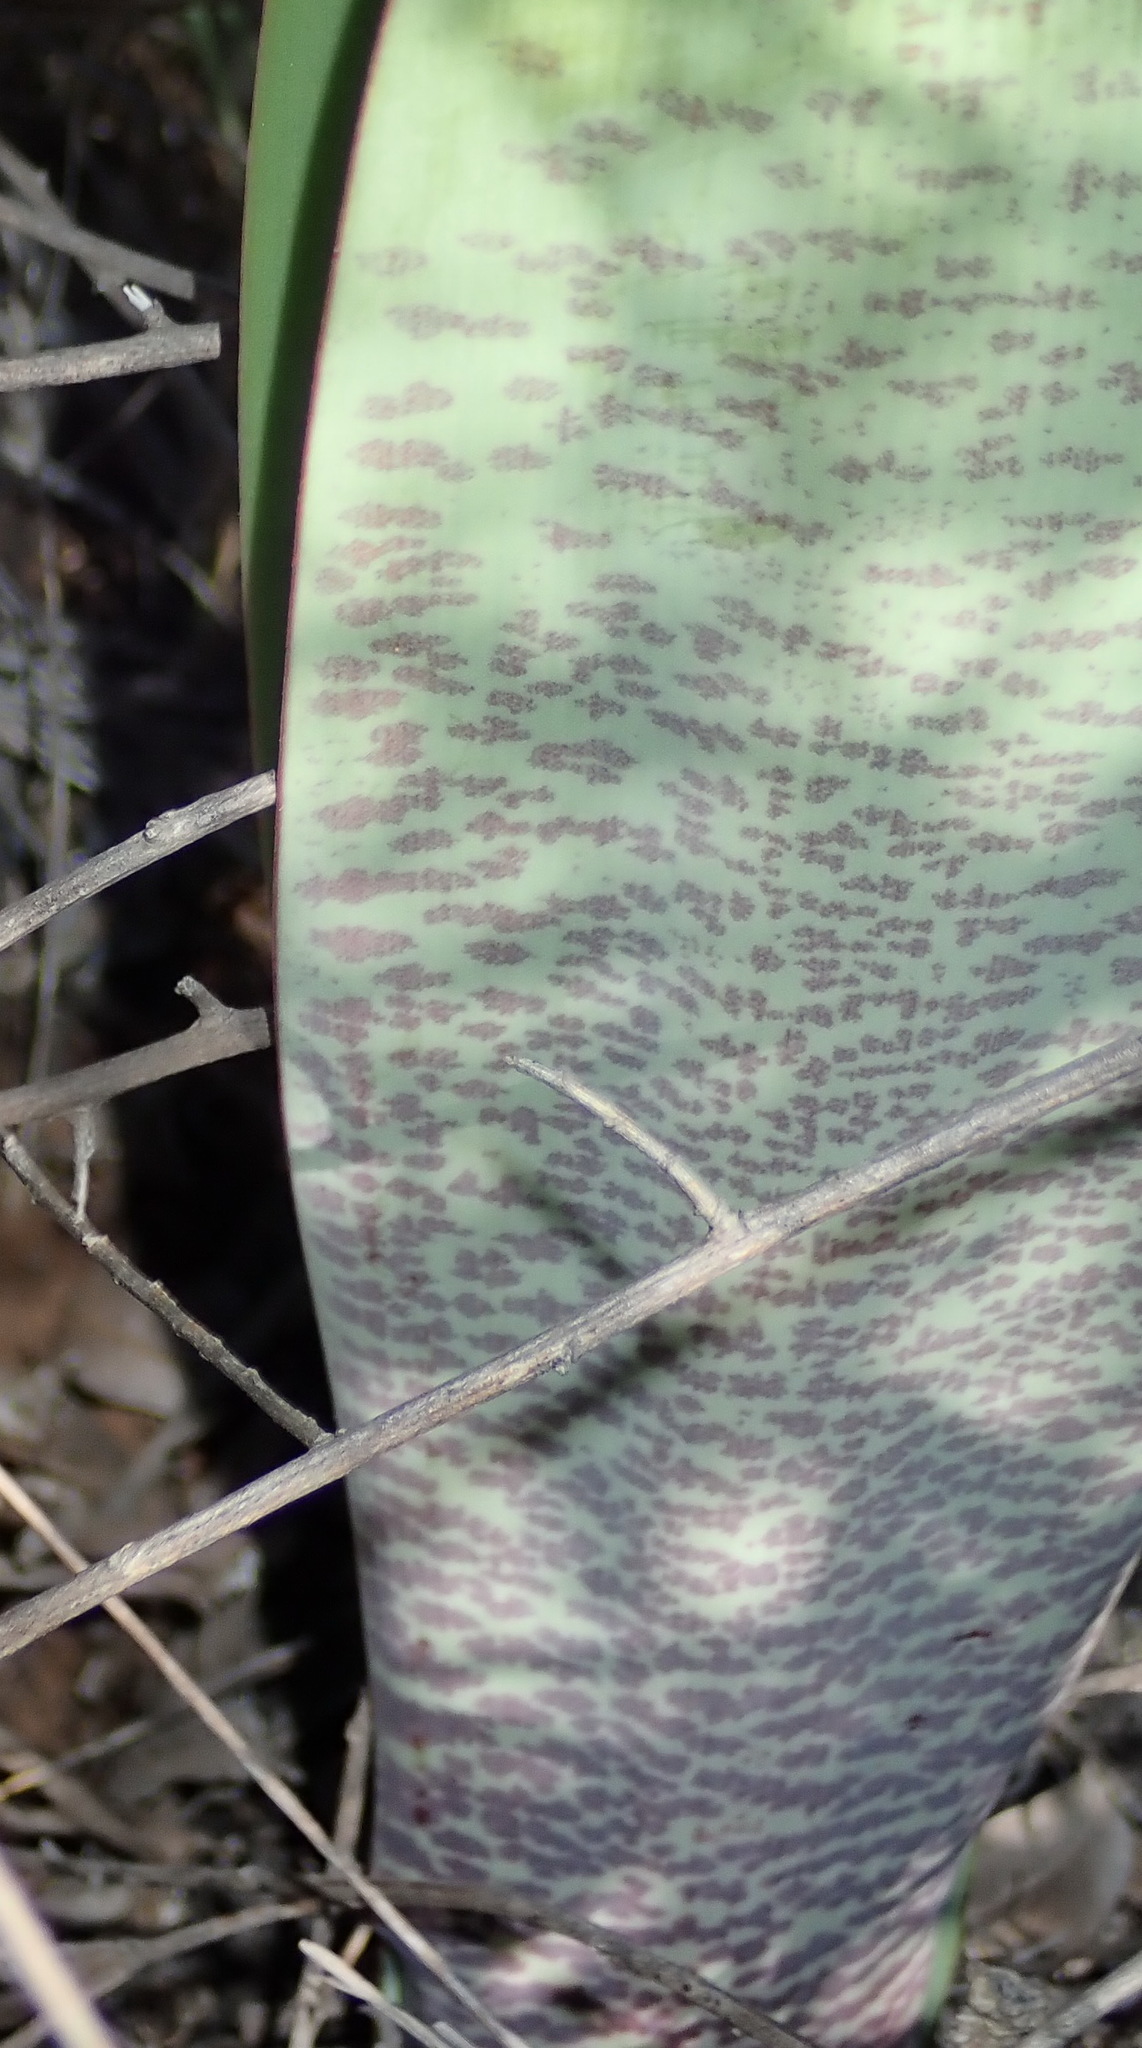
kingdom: Plantae
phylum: Tracheophyta
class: Liliopsida
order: Asparagales
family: Amaryllidaceae
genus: Haemanthus
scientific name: Haemanthus coccineus
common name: Cape-tulip
